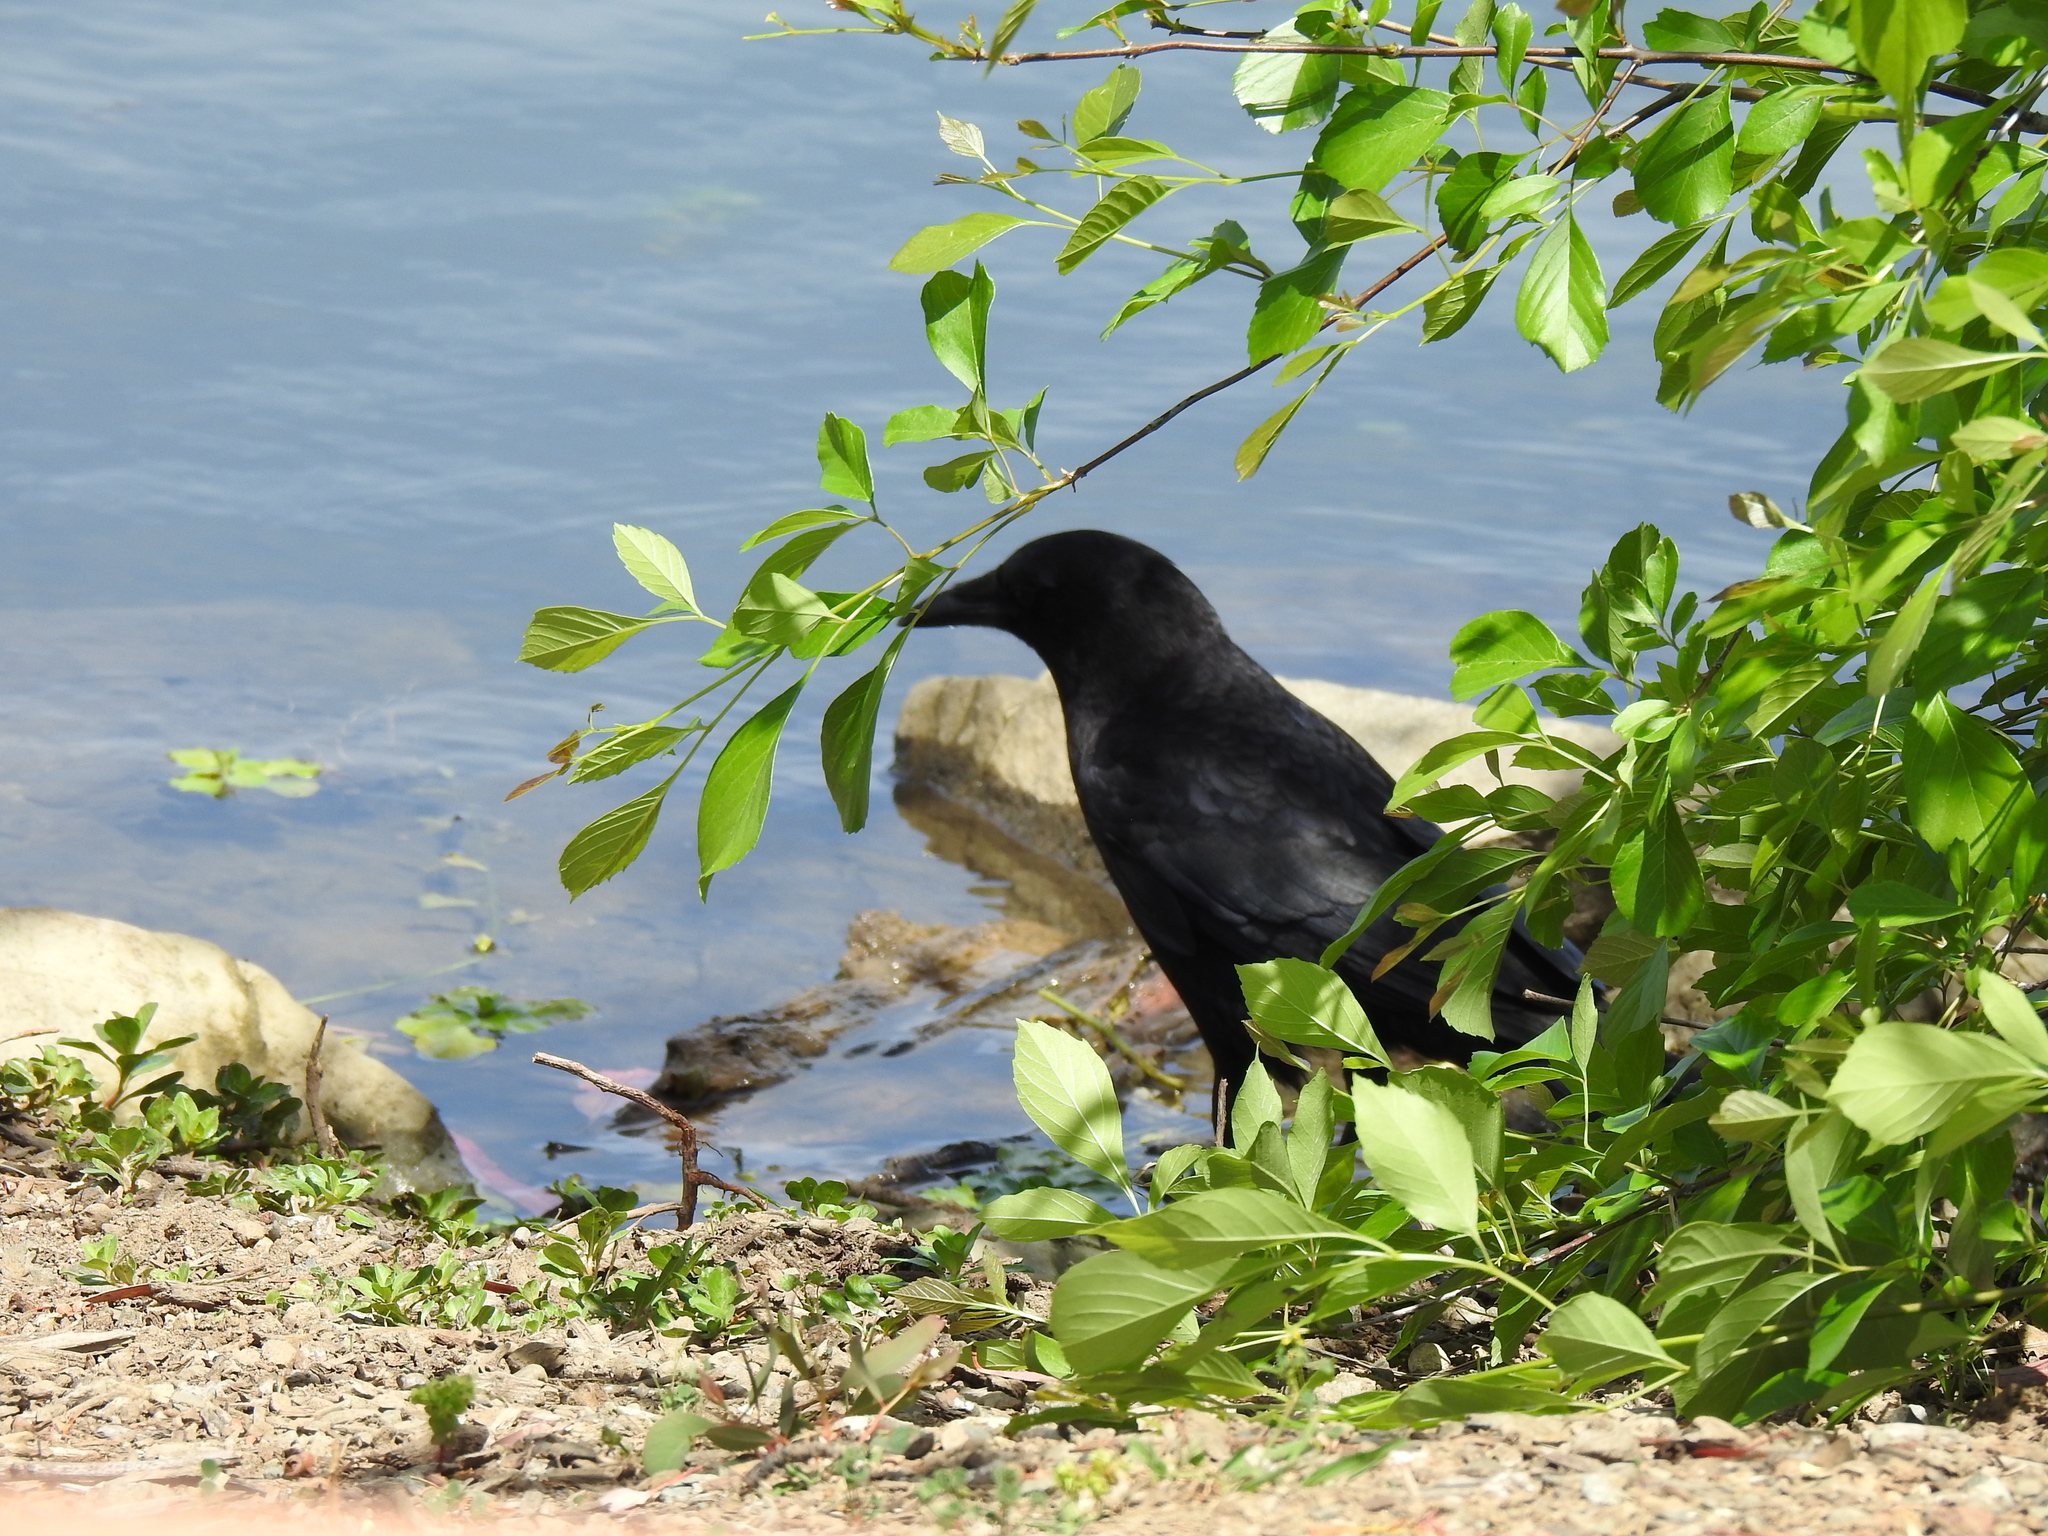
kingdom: Animalia
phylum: Chordata
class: Aves
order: Passeriformes
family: Corvidae
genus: Corvus
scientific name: Corvus brachyrhynchos
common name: American crow
